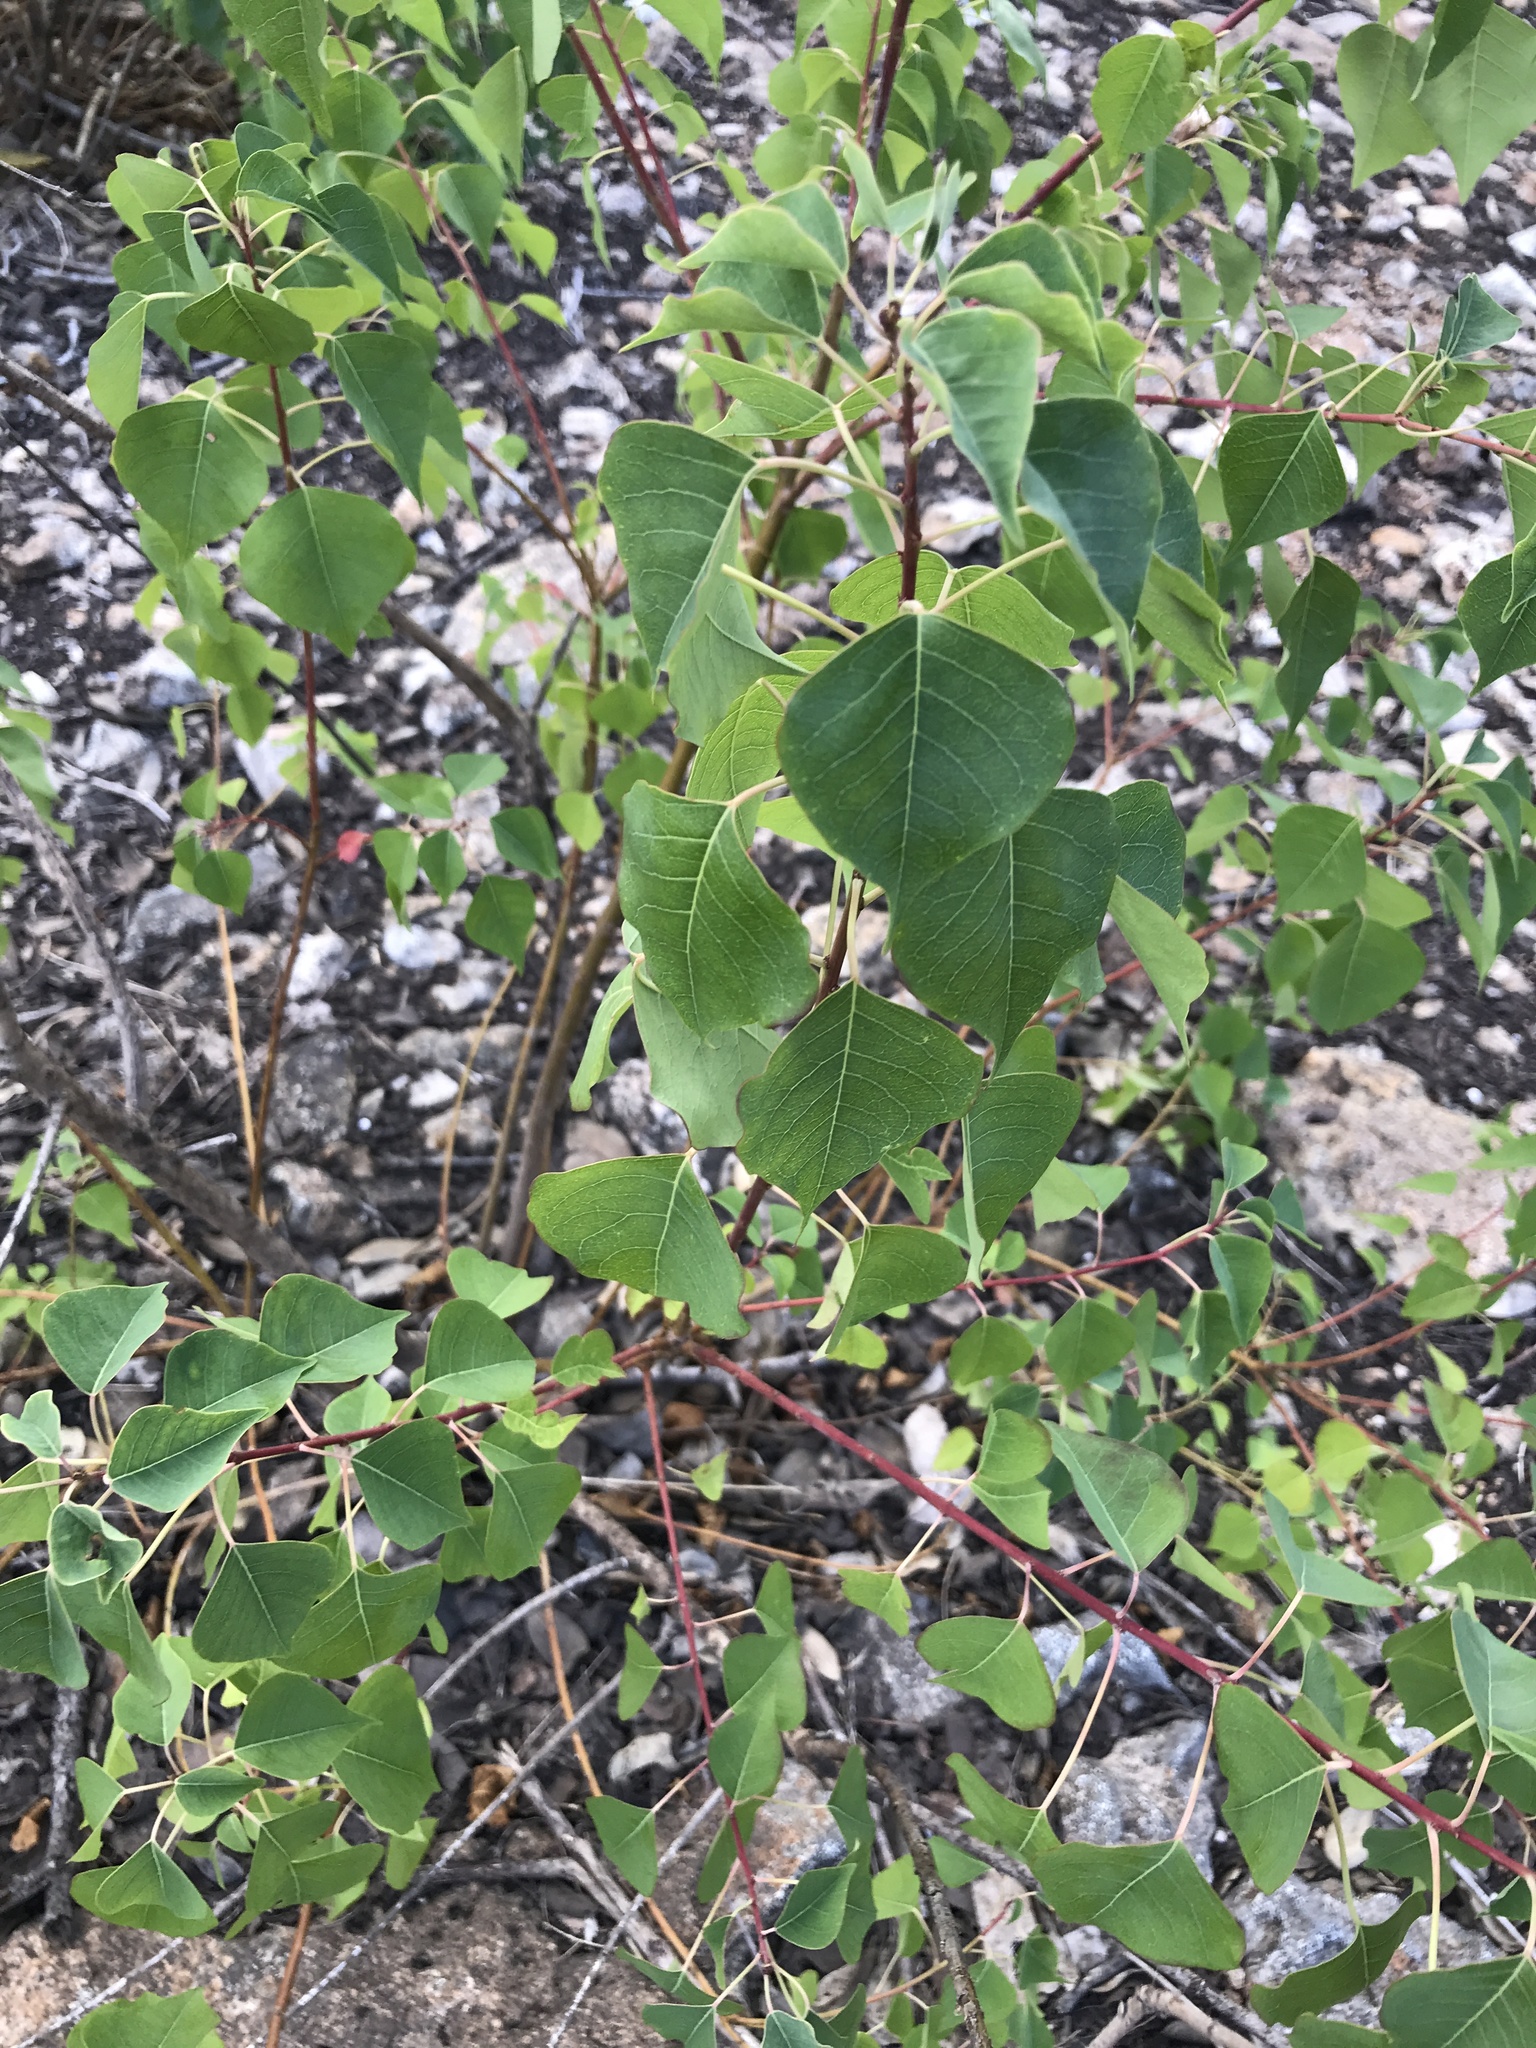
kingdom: Plantae
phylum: Tracheophyta
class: Magnoliopsida
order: Malpighiales
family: Euphorbiaceae
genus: Triadica
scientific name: Triadica sebifera
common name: Chinese tallow
